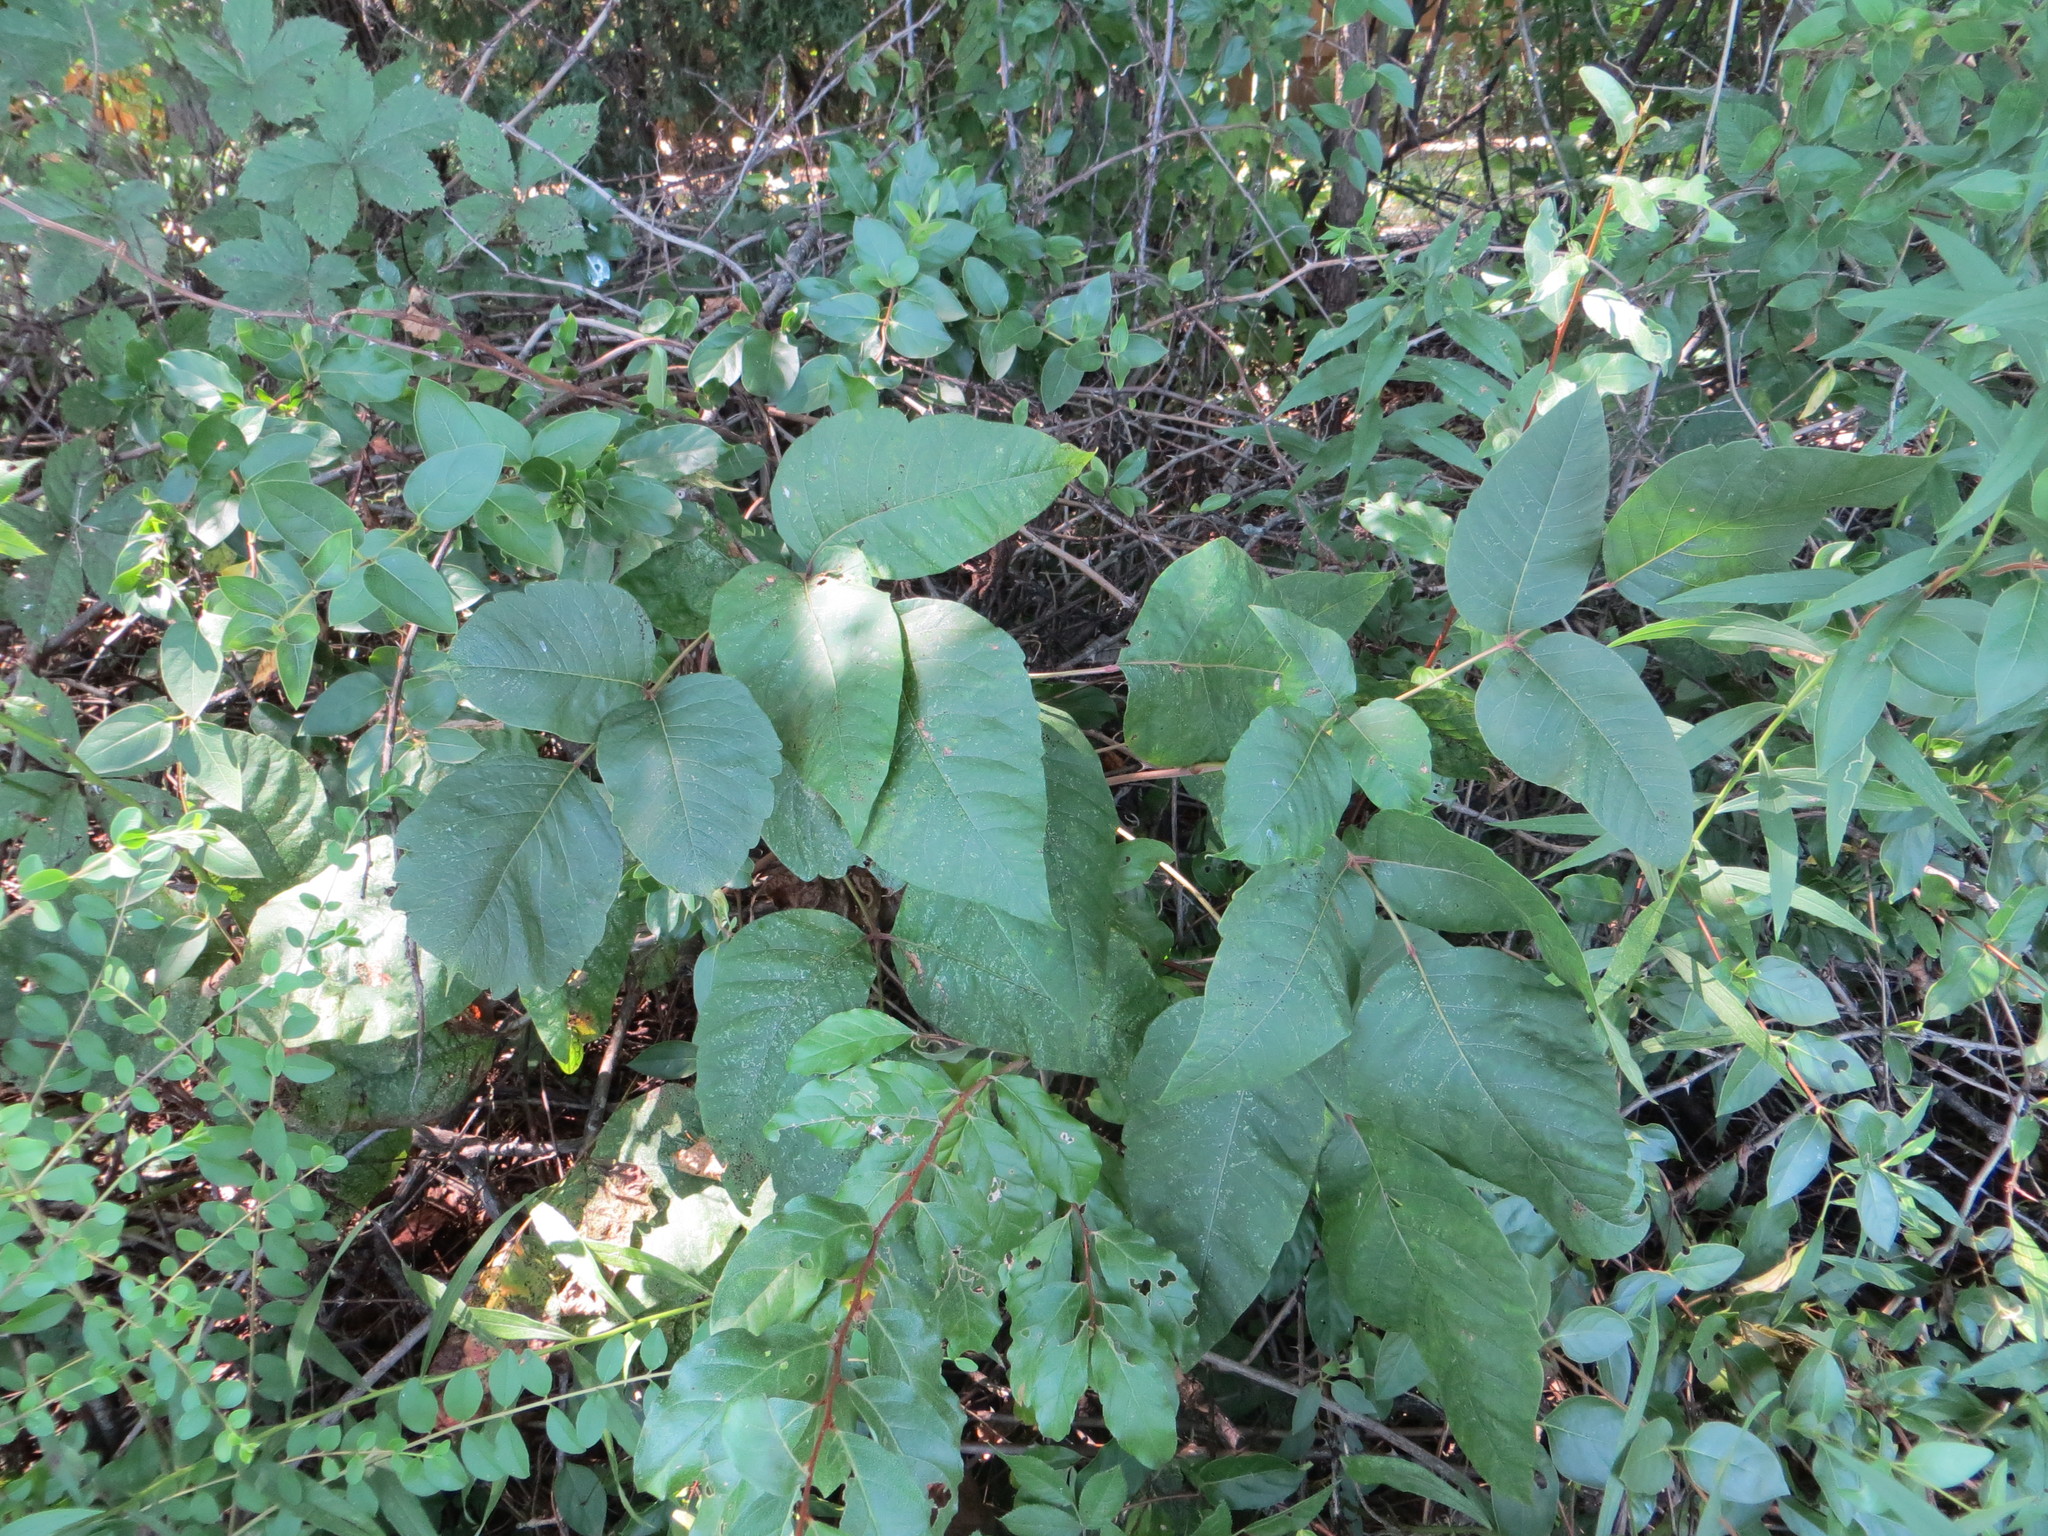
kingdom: Plantae
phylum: Tracheophyta
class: Magnoliopsida
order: Sapindales
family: Anacardiaceae
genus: Toxicodendron
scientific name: Toxicodendron radicans
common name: Poison ivy
